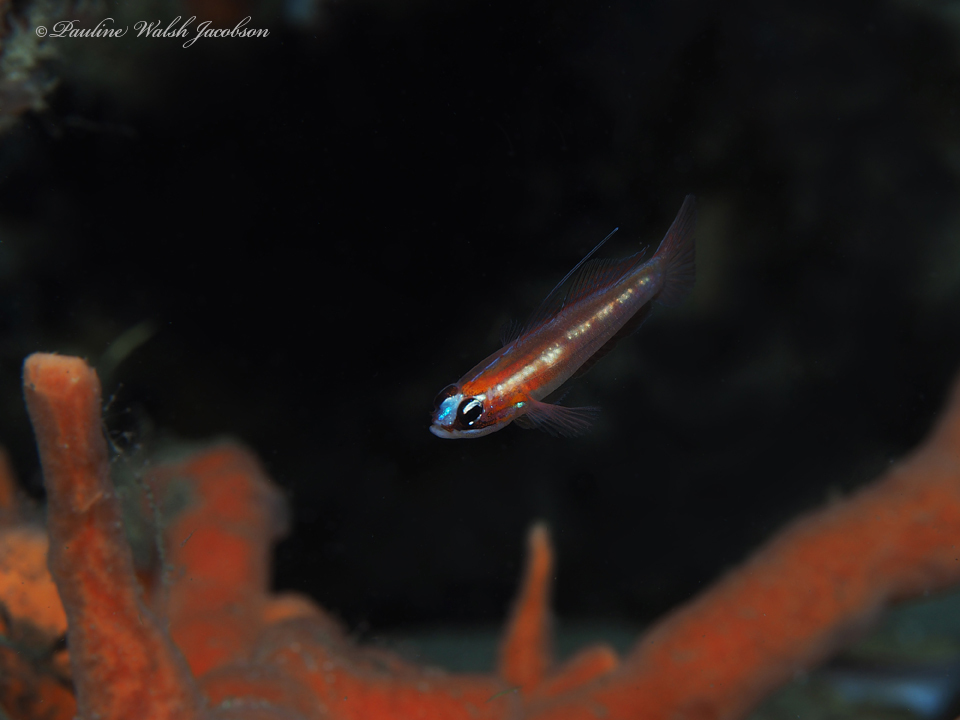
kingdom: Animalia
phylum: Chordata
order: Perciformes
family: Gobiidae
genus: Coryphopterus
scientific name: Coryphopterus personatus
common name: Masked goby
